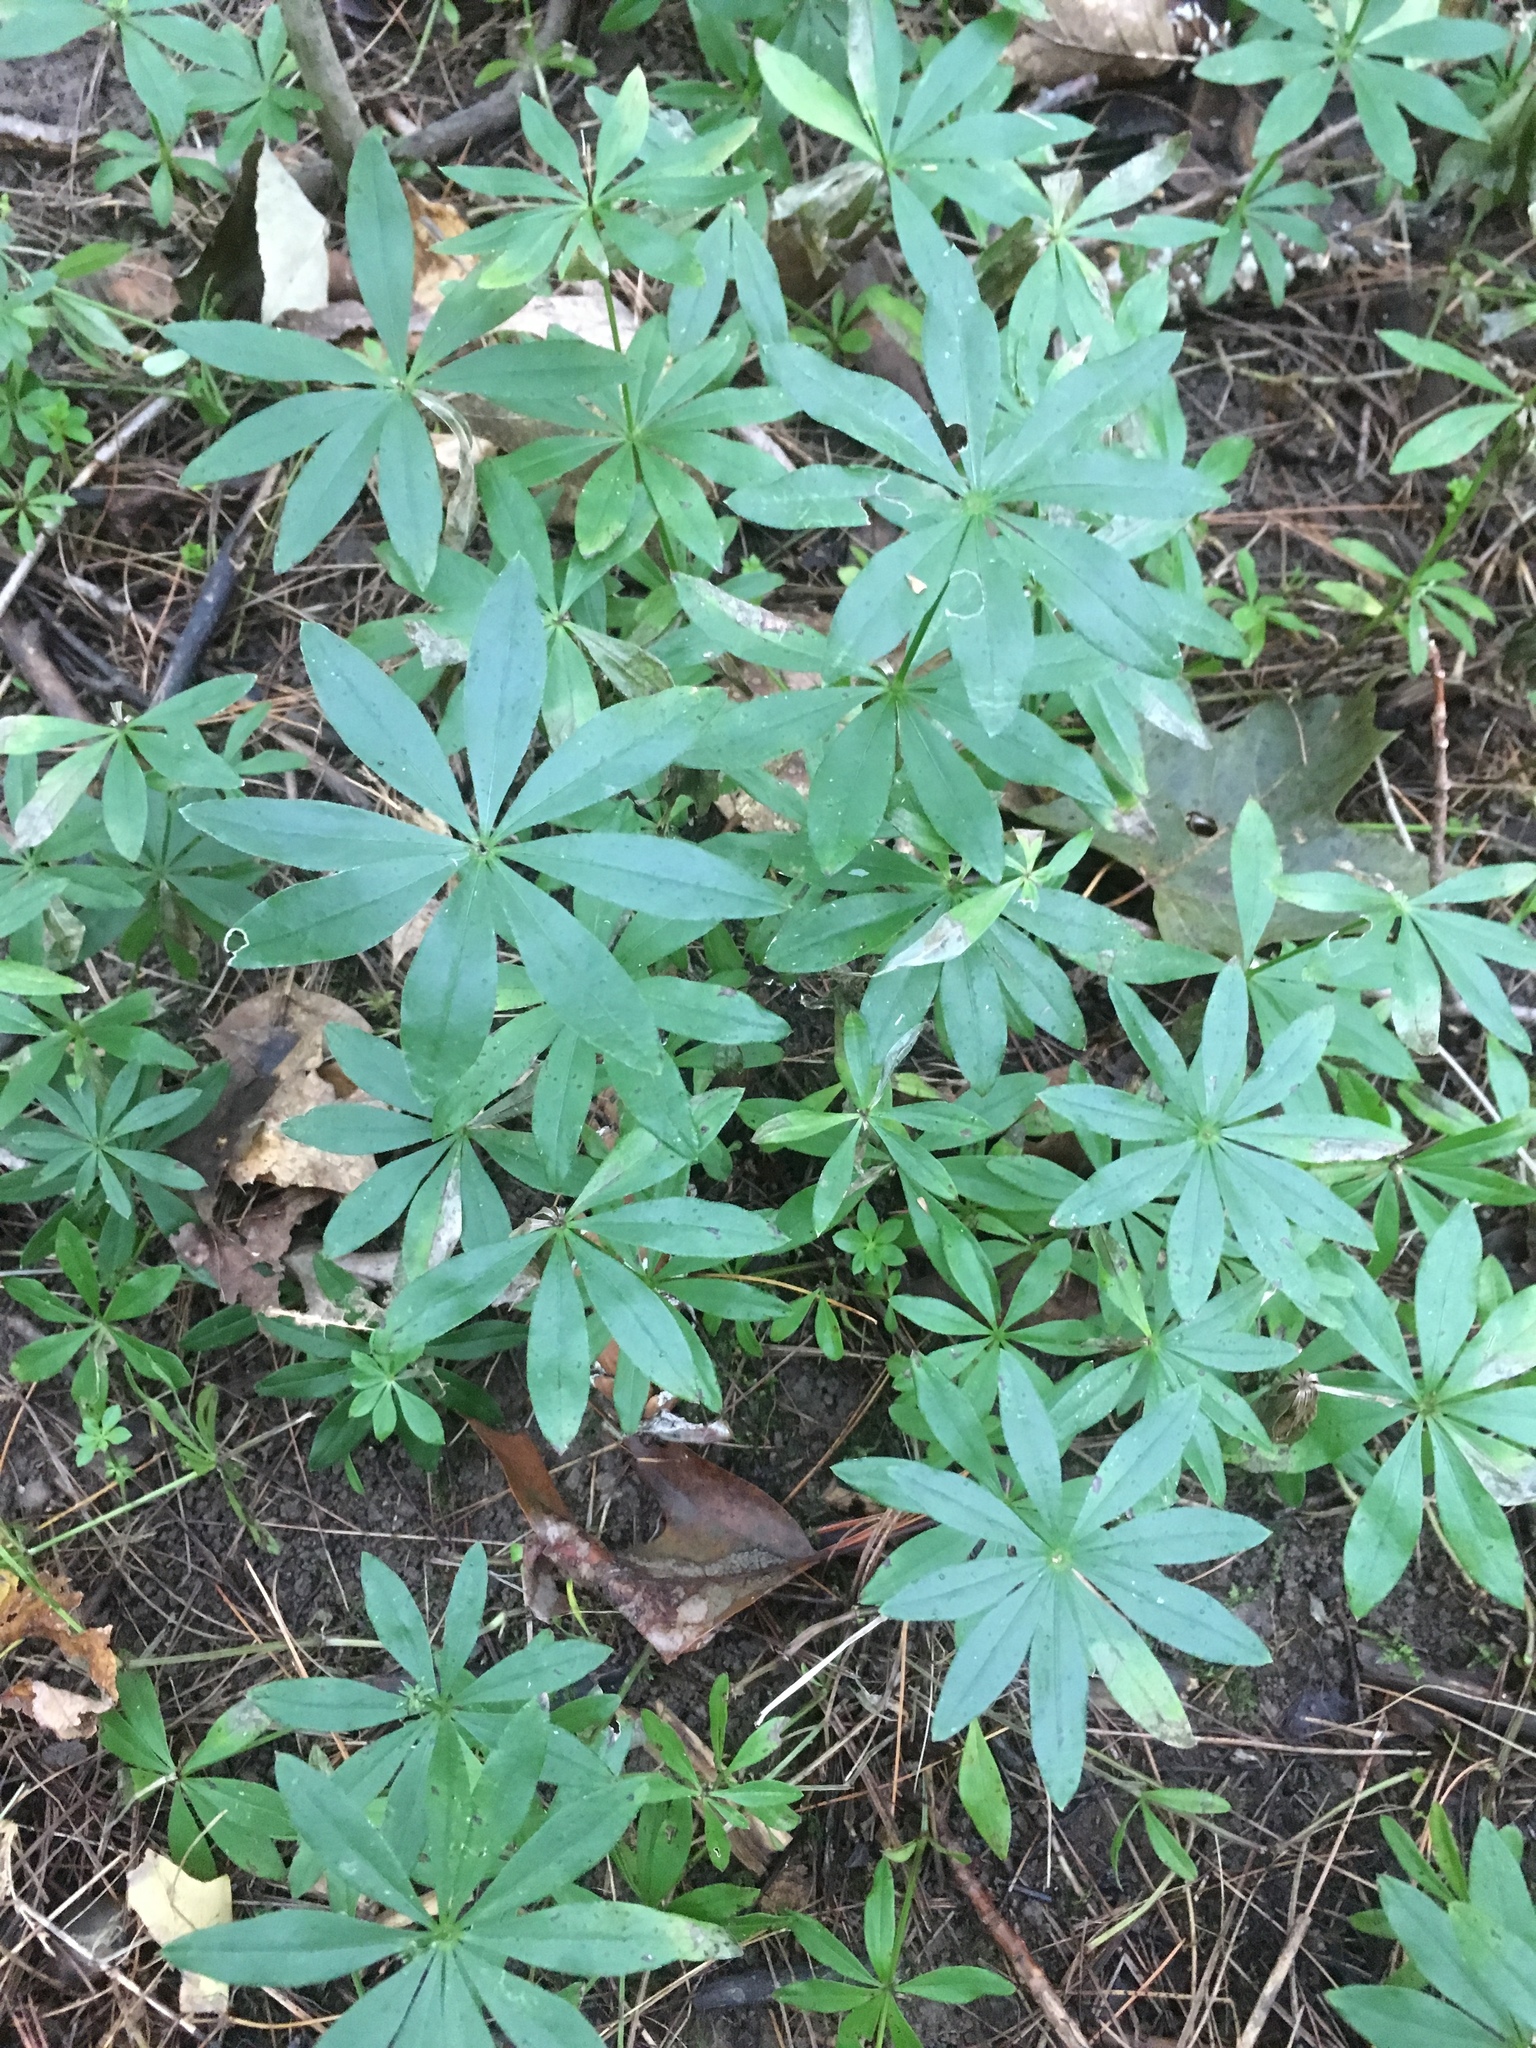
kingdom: Plantae
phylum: Tracheophyta
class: Magnoliopsida
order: Gentianales
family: Rubiaceae
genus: Galium
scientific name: Galium odoratum
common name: Sweet woodruff
